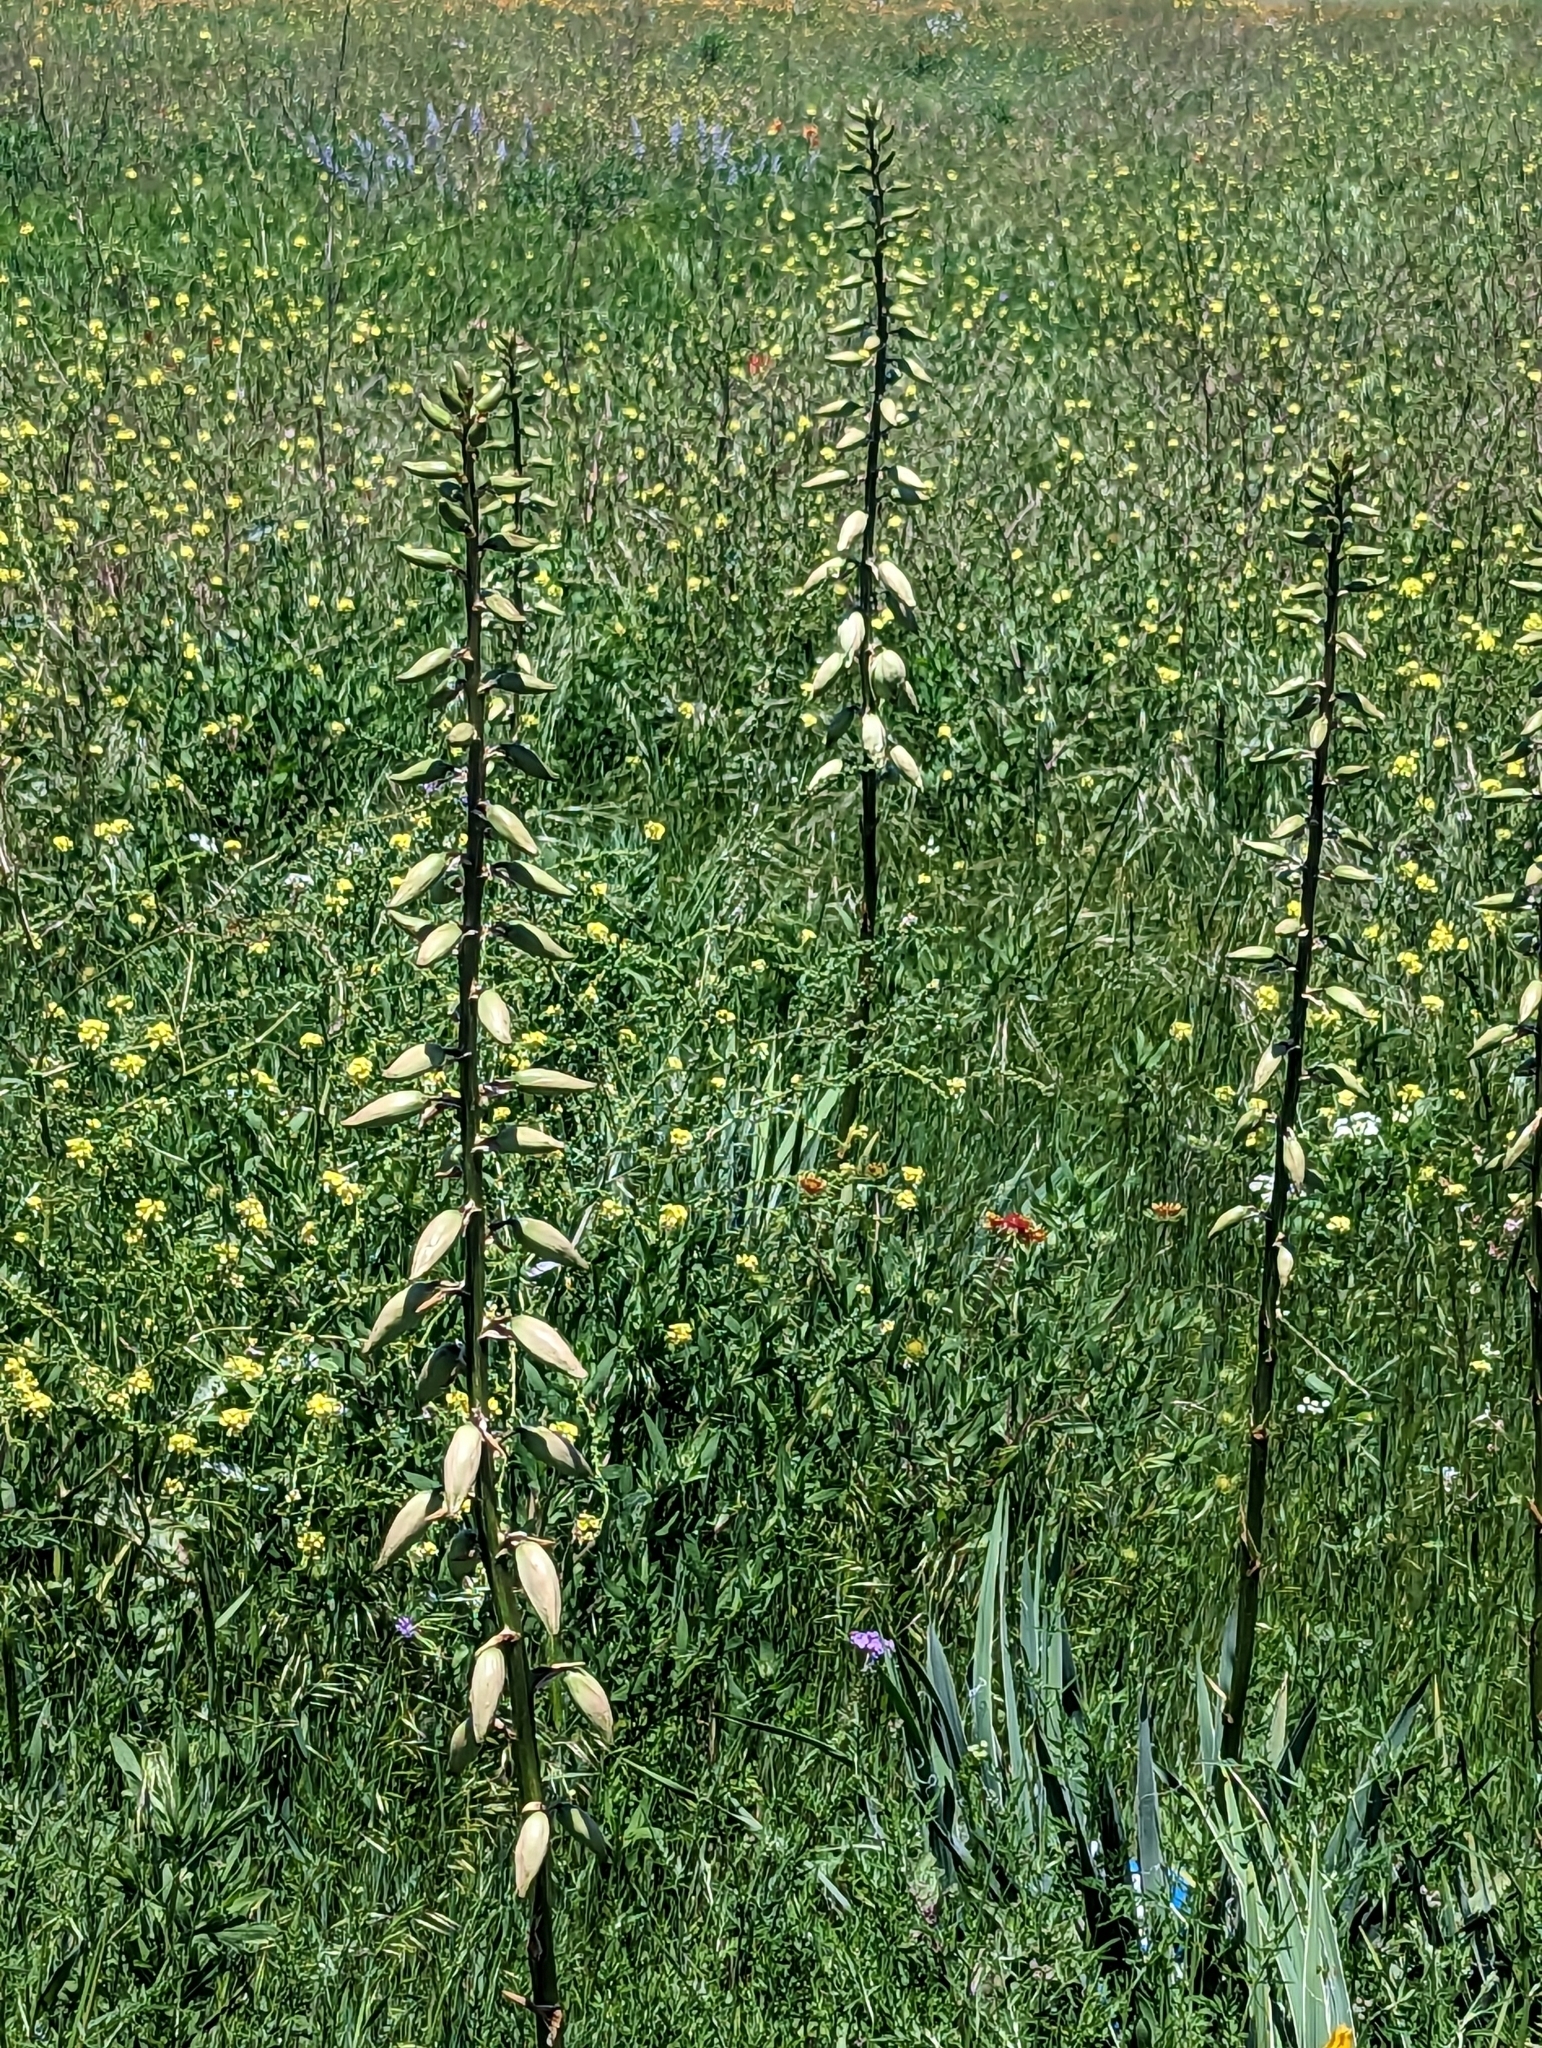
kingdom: Plantae
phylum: Tracheophyta
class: Liliopsida
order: Asparagales
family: Asparagaceae
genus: Yucca
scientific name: Yucca arkansana
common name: Arkansas yucca
